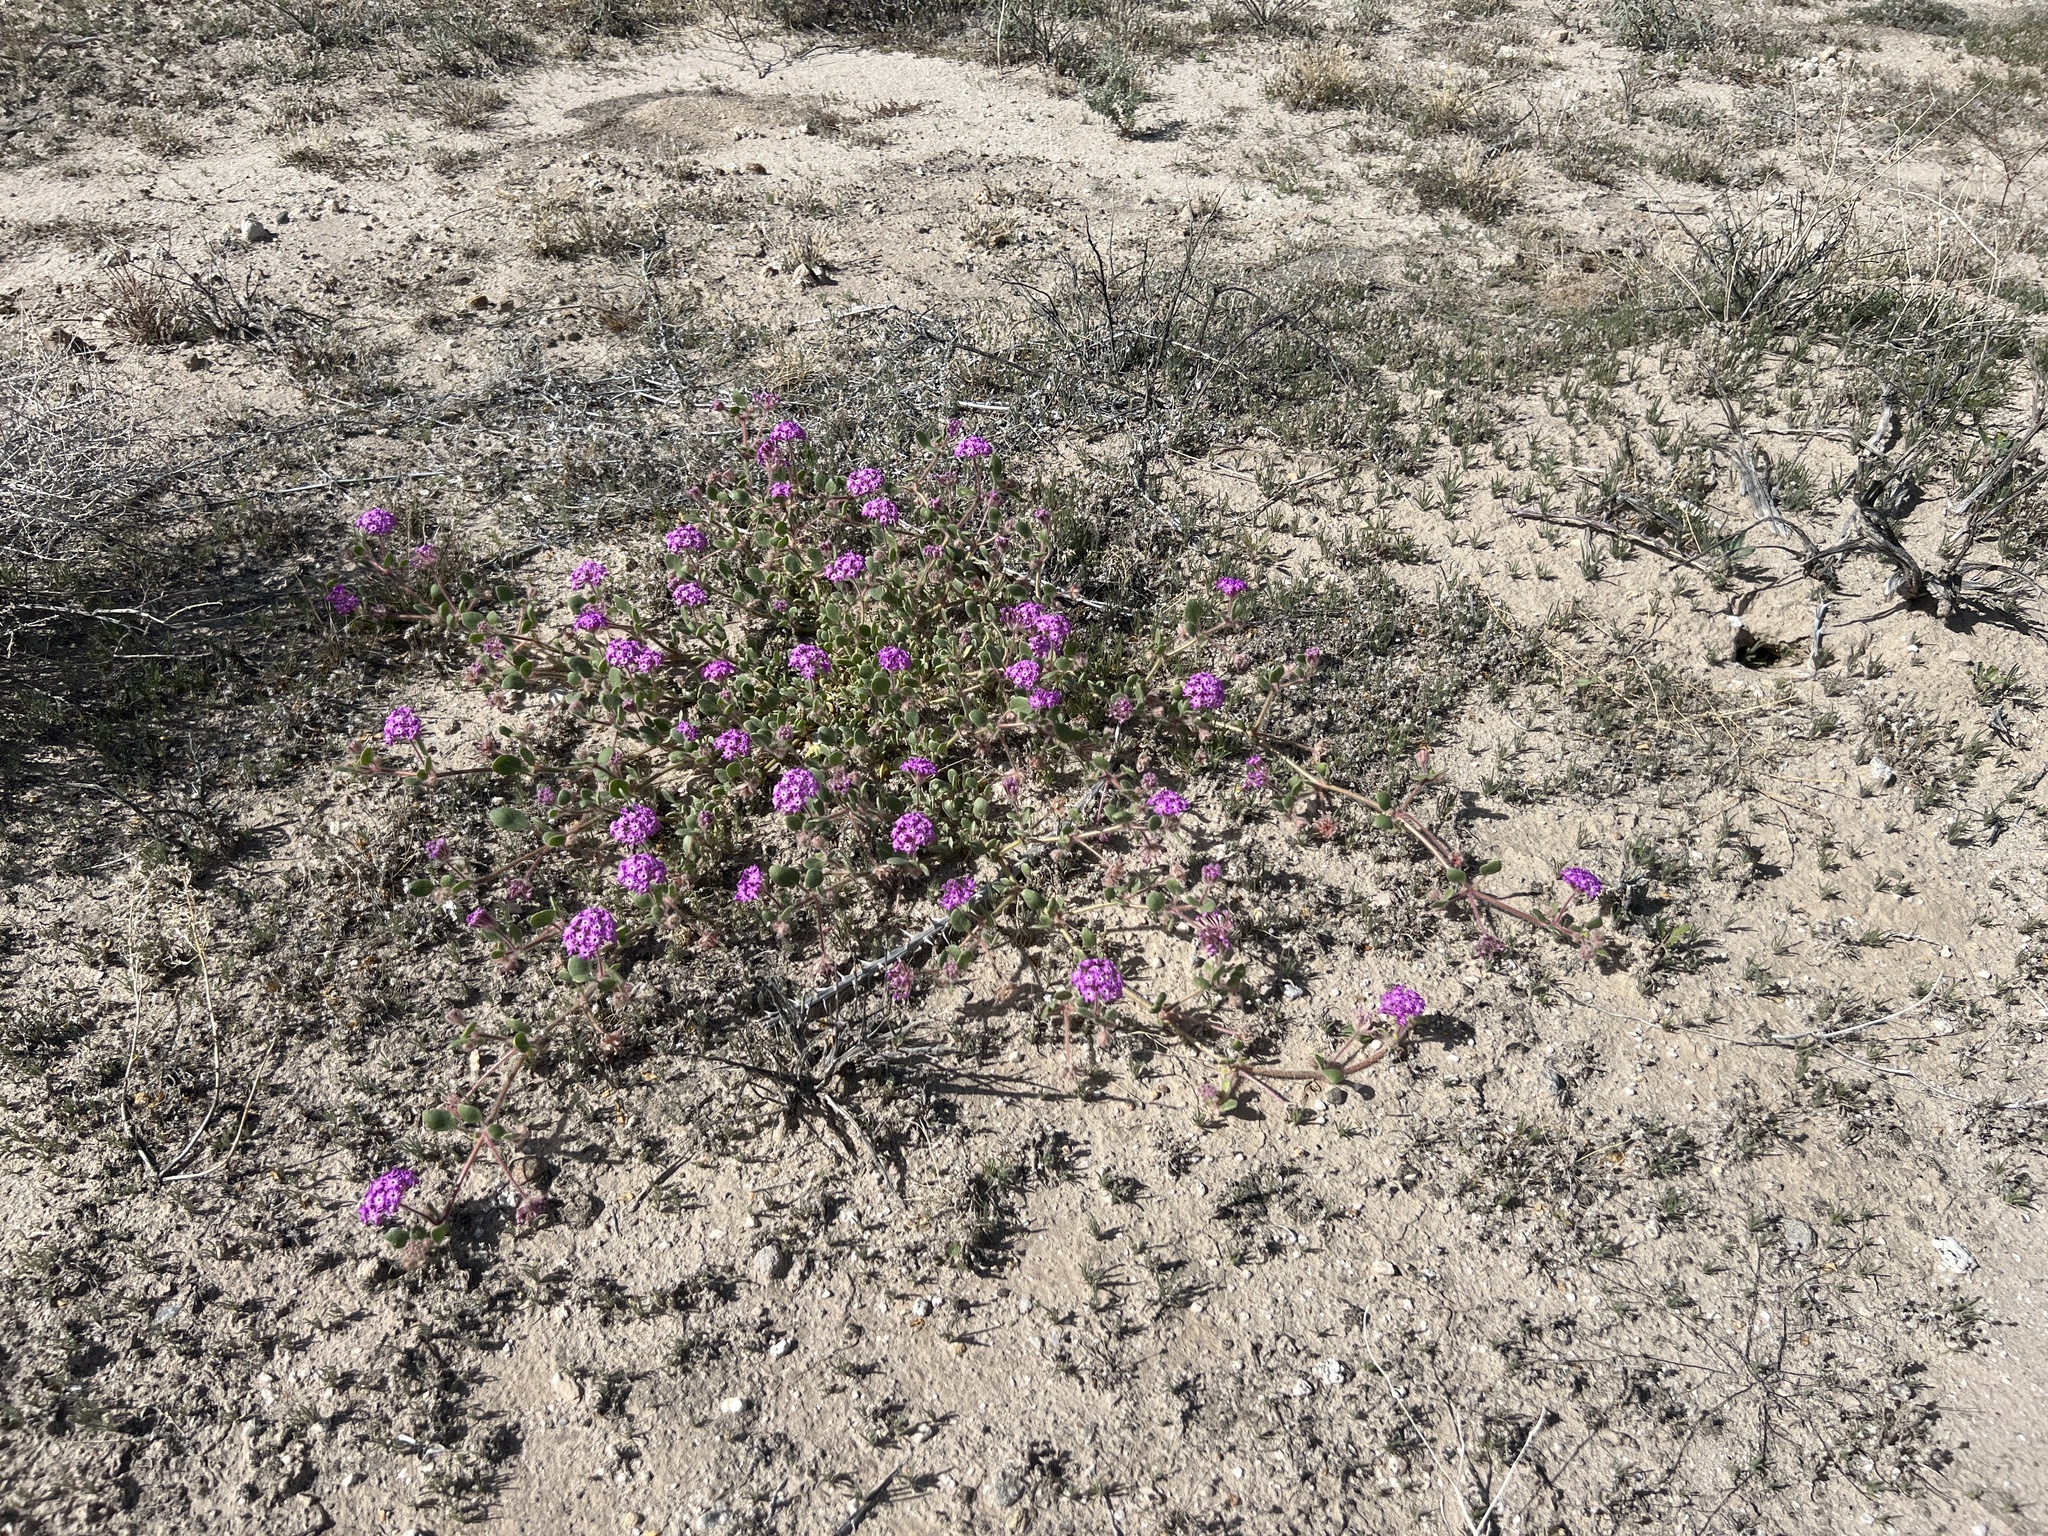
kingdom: Plantae
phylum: Tracheophyta
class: Magnoliopsida
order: Caryophyllales
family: Nyctaginaceae
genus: Abronia
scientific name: Abronia villosa
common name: Desert sand-verbena
